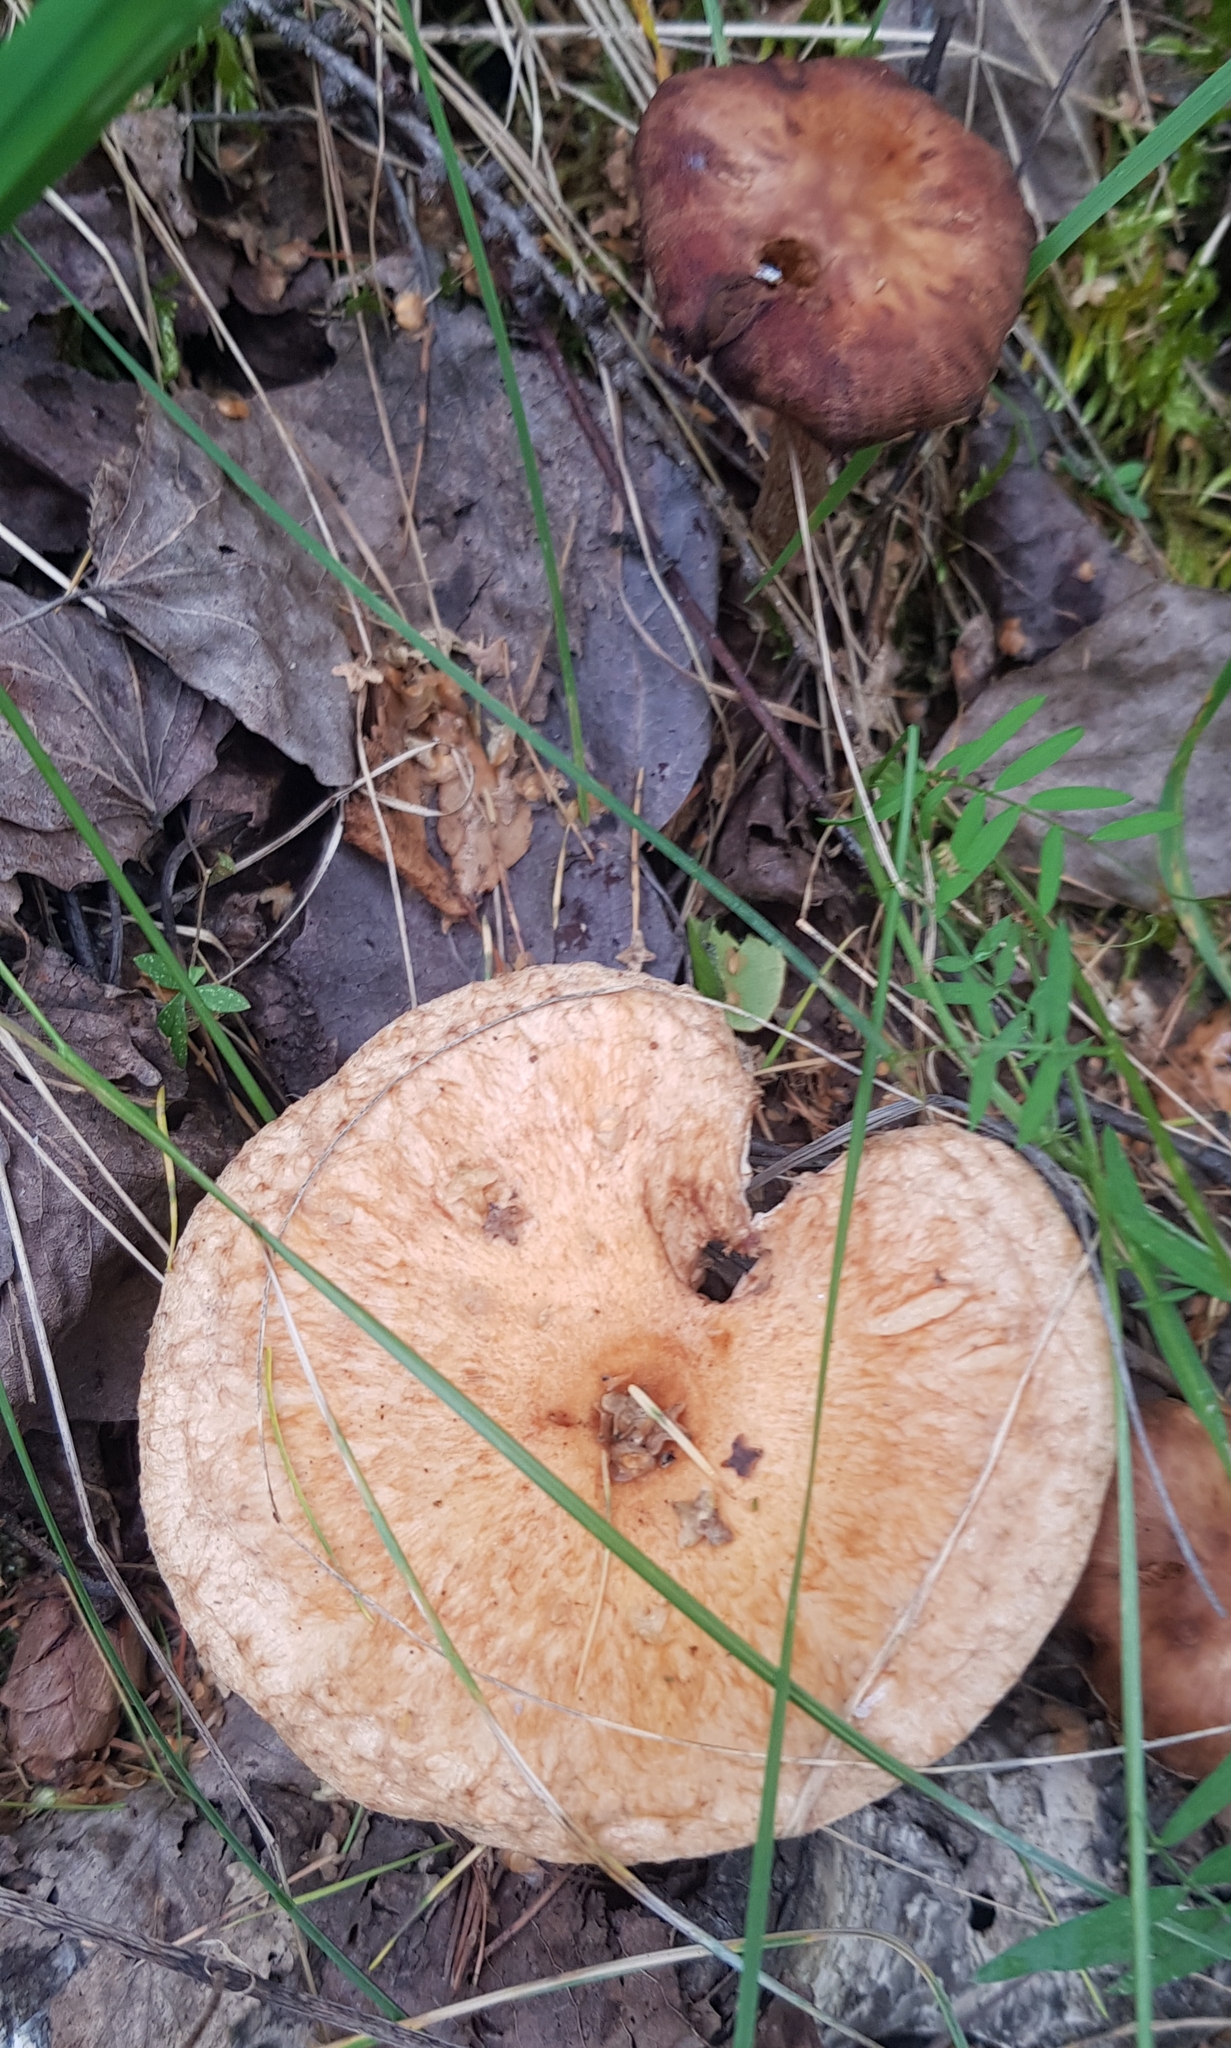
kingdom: Fungi
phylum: Basidiomycota
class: Agaricomycetes
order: Russulales
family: Russulaceae
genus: Lactarius
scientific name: Lactarius torminosus
